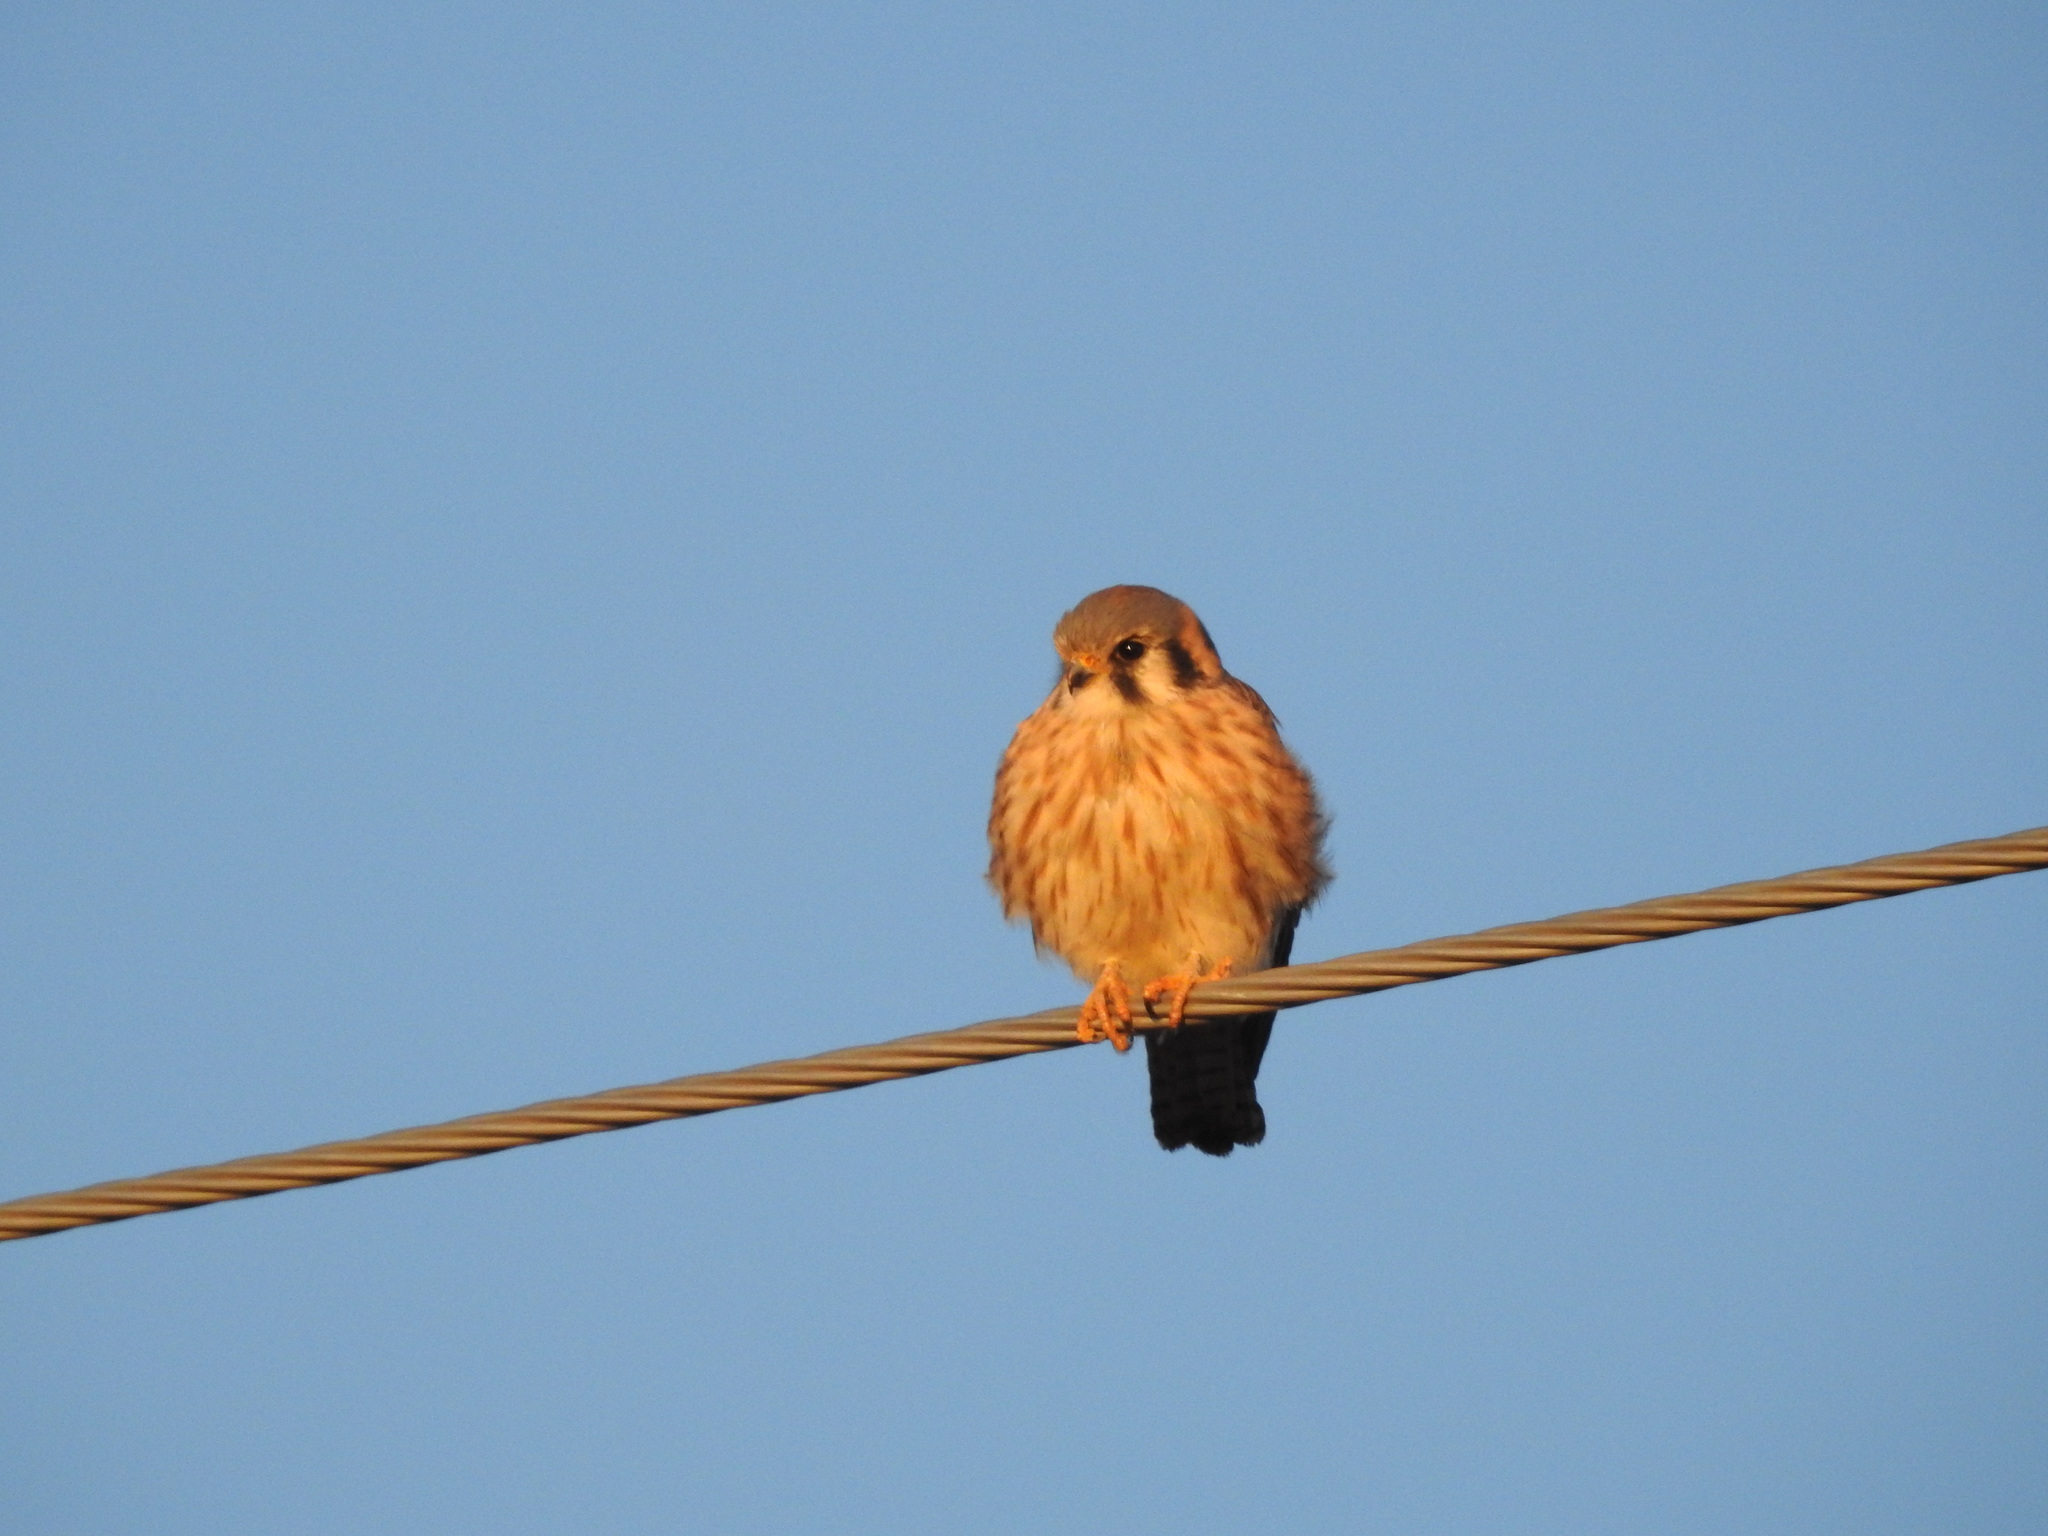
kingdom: Animalia
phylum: Chordata
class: Aves
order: Falconiformes
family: Falconidae
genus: Falco
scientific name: Falco sparverius
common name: American kestrel
